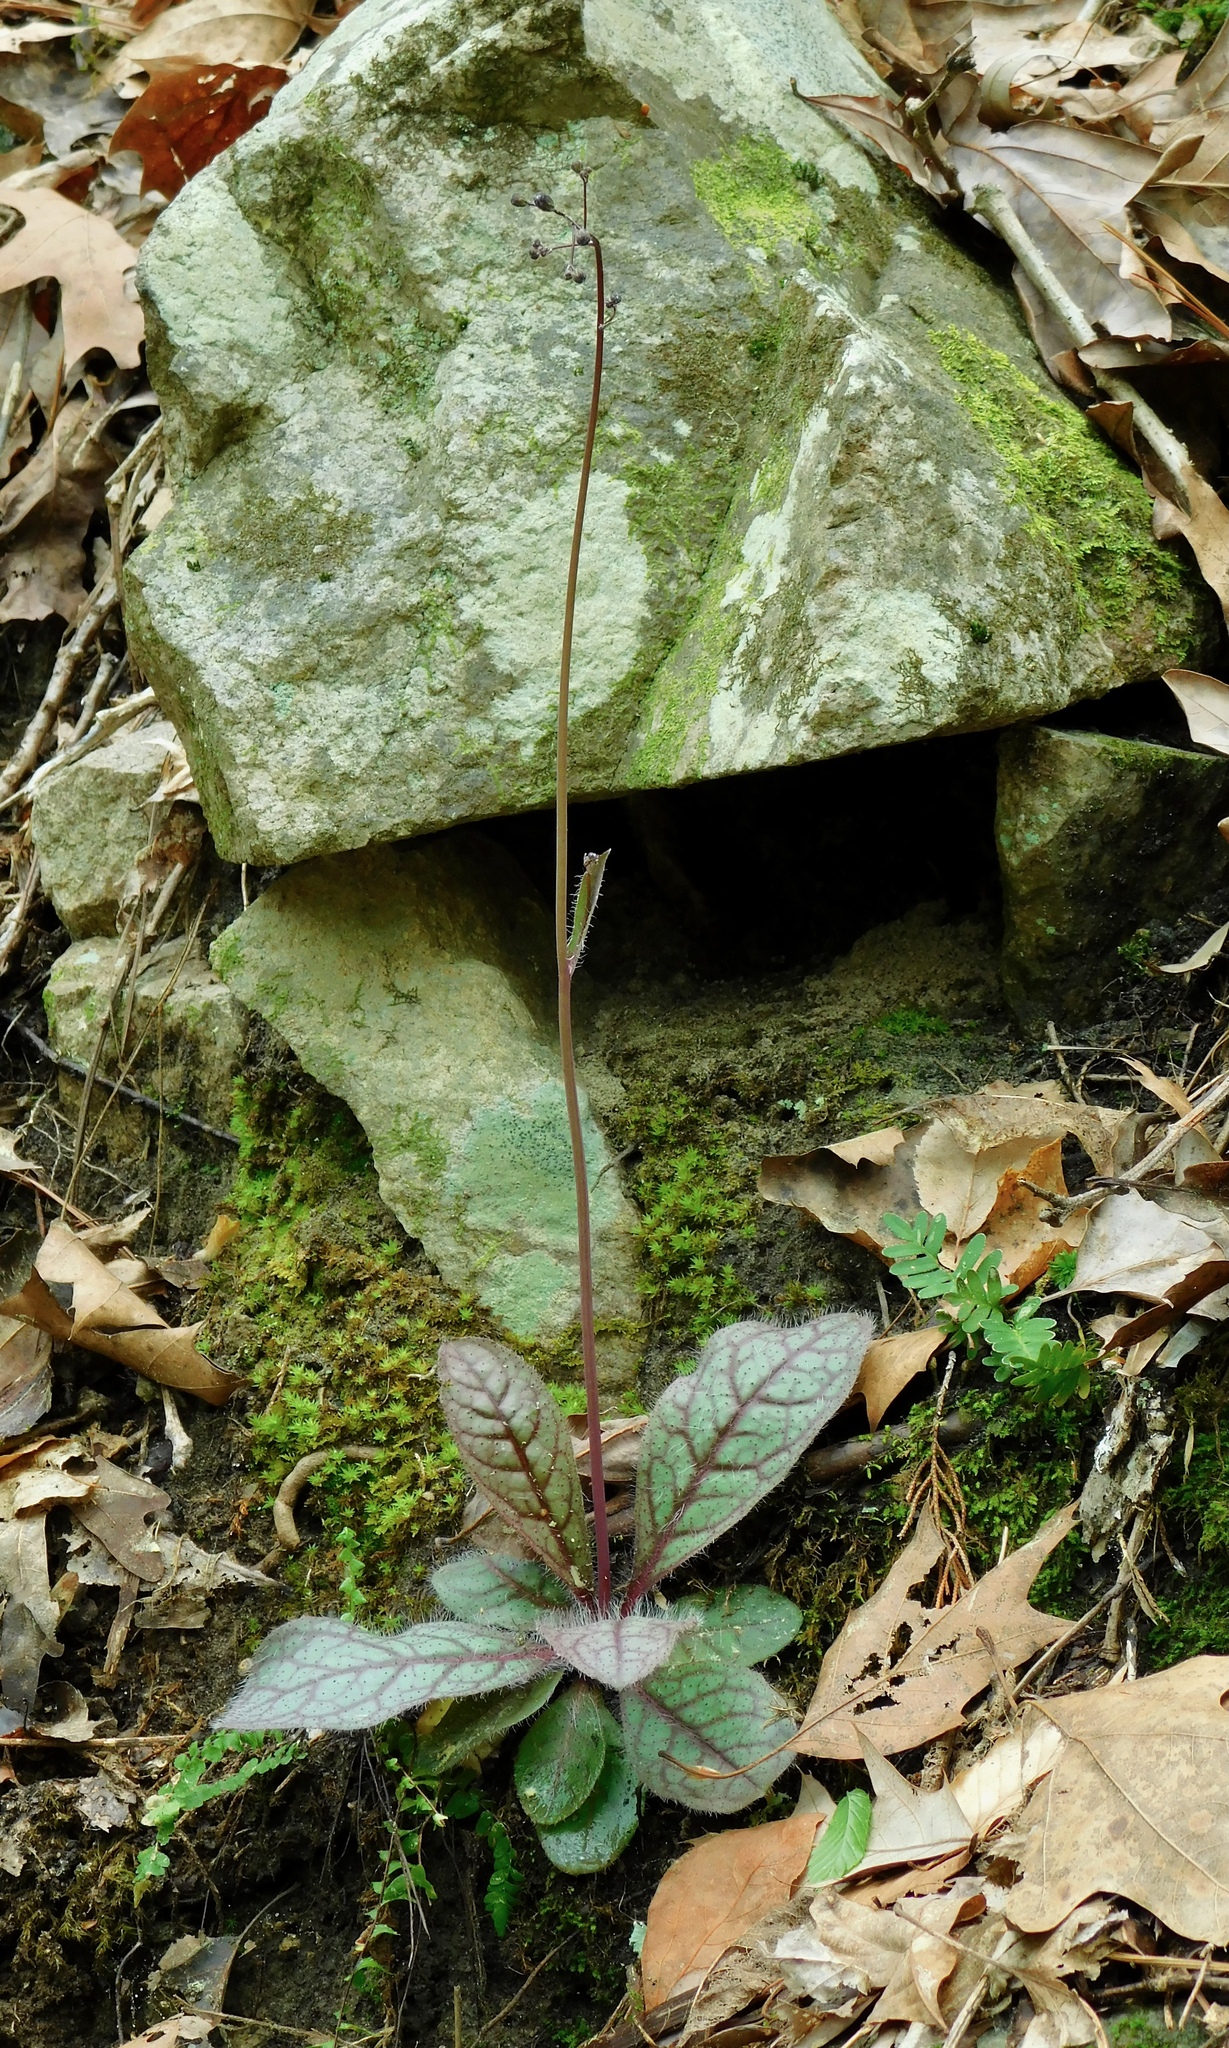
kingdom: Plantae
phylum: Tracheophyta
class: Magnoliopsida
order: Asterales
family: Asteraceae
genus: Hieracium
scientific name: Hieracium venosum
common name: Rattlesnake hawkweed
